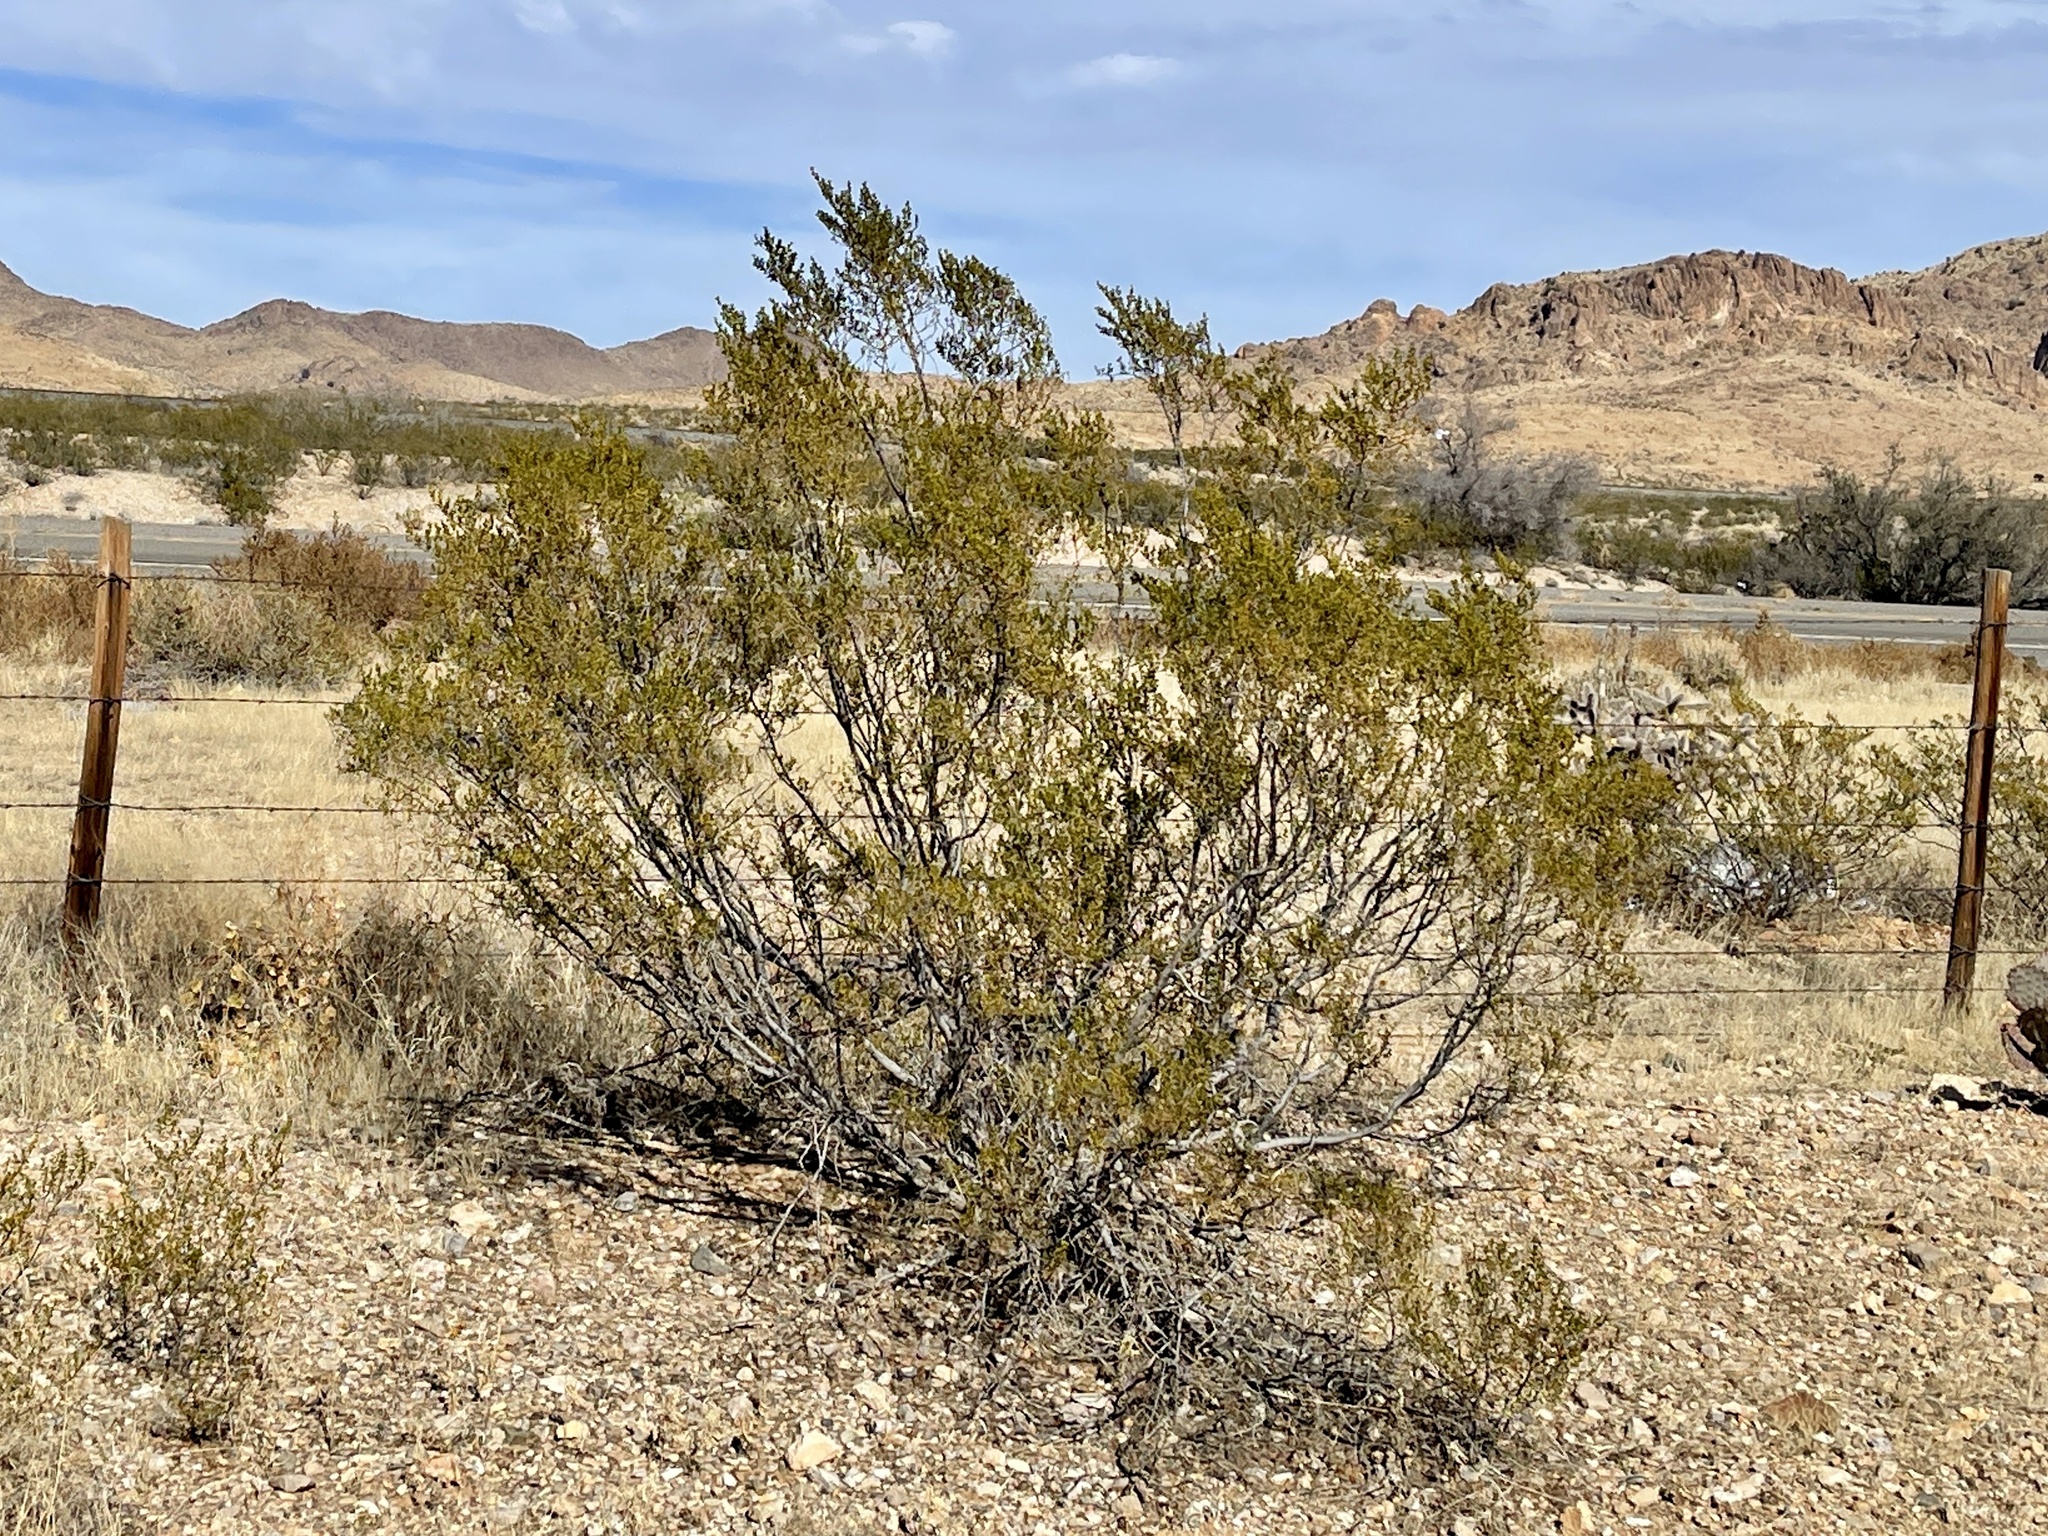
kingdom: Plantae
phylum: Tracheophyta
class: Magnoliopsida
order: Zygophyllales
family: Zygophyllaceae
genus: Larrea
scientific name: Larrea tridentata
